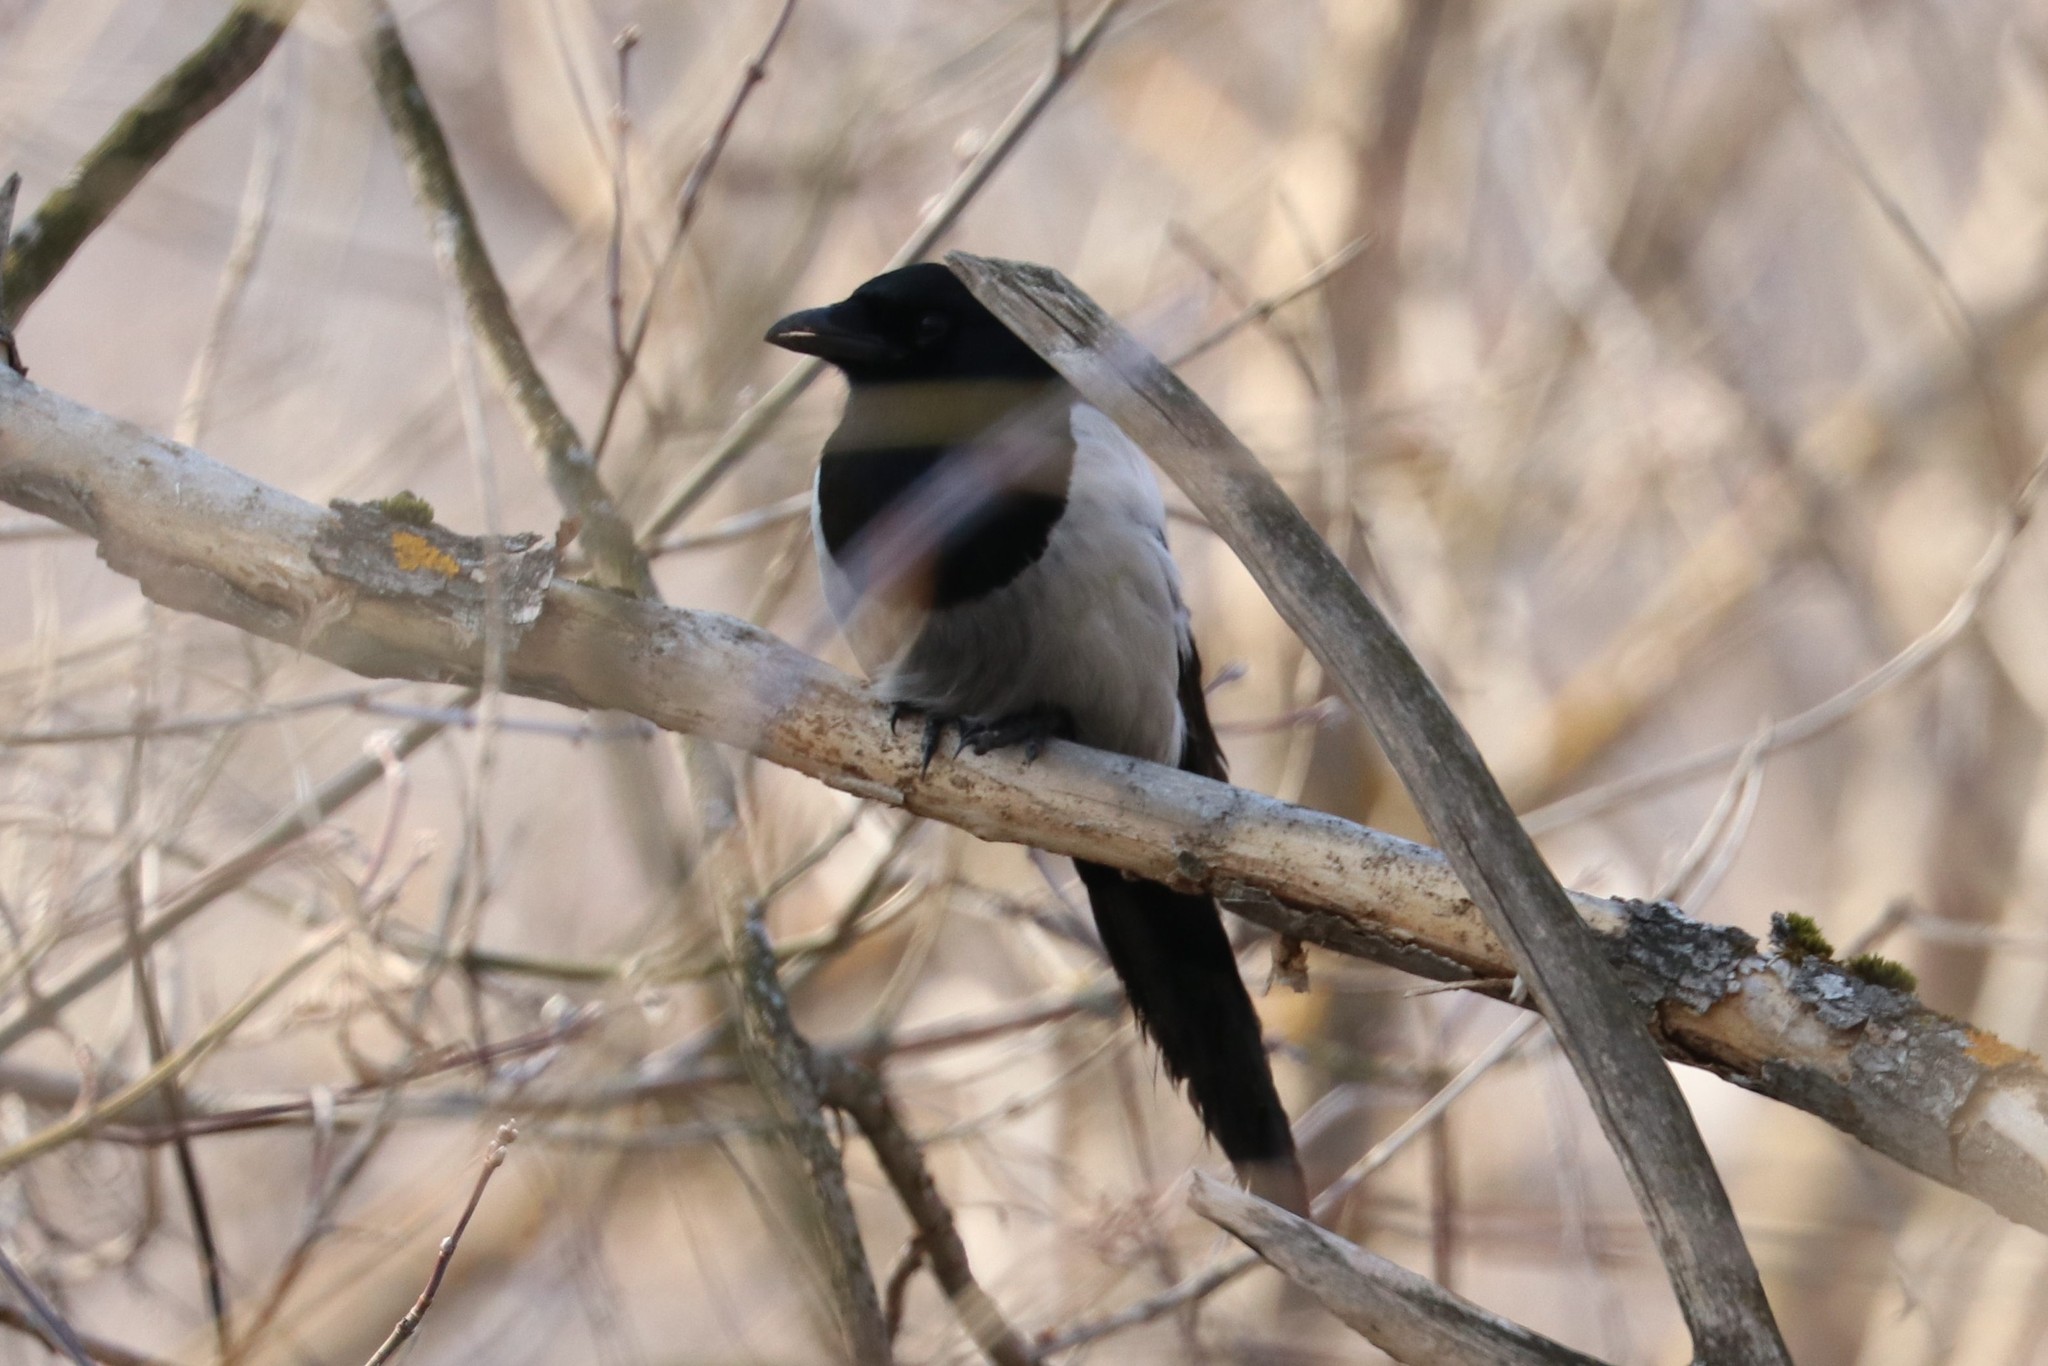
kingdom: Animalia
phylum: Chordata
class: Aves
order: Passeriformes
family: Corvidae
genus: Pica
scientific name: Pica pica
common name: Eurasian magpie
